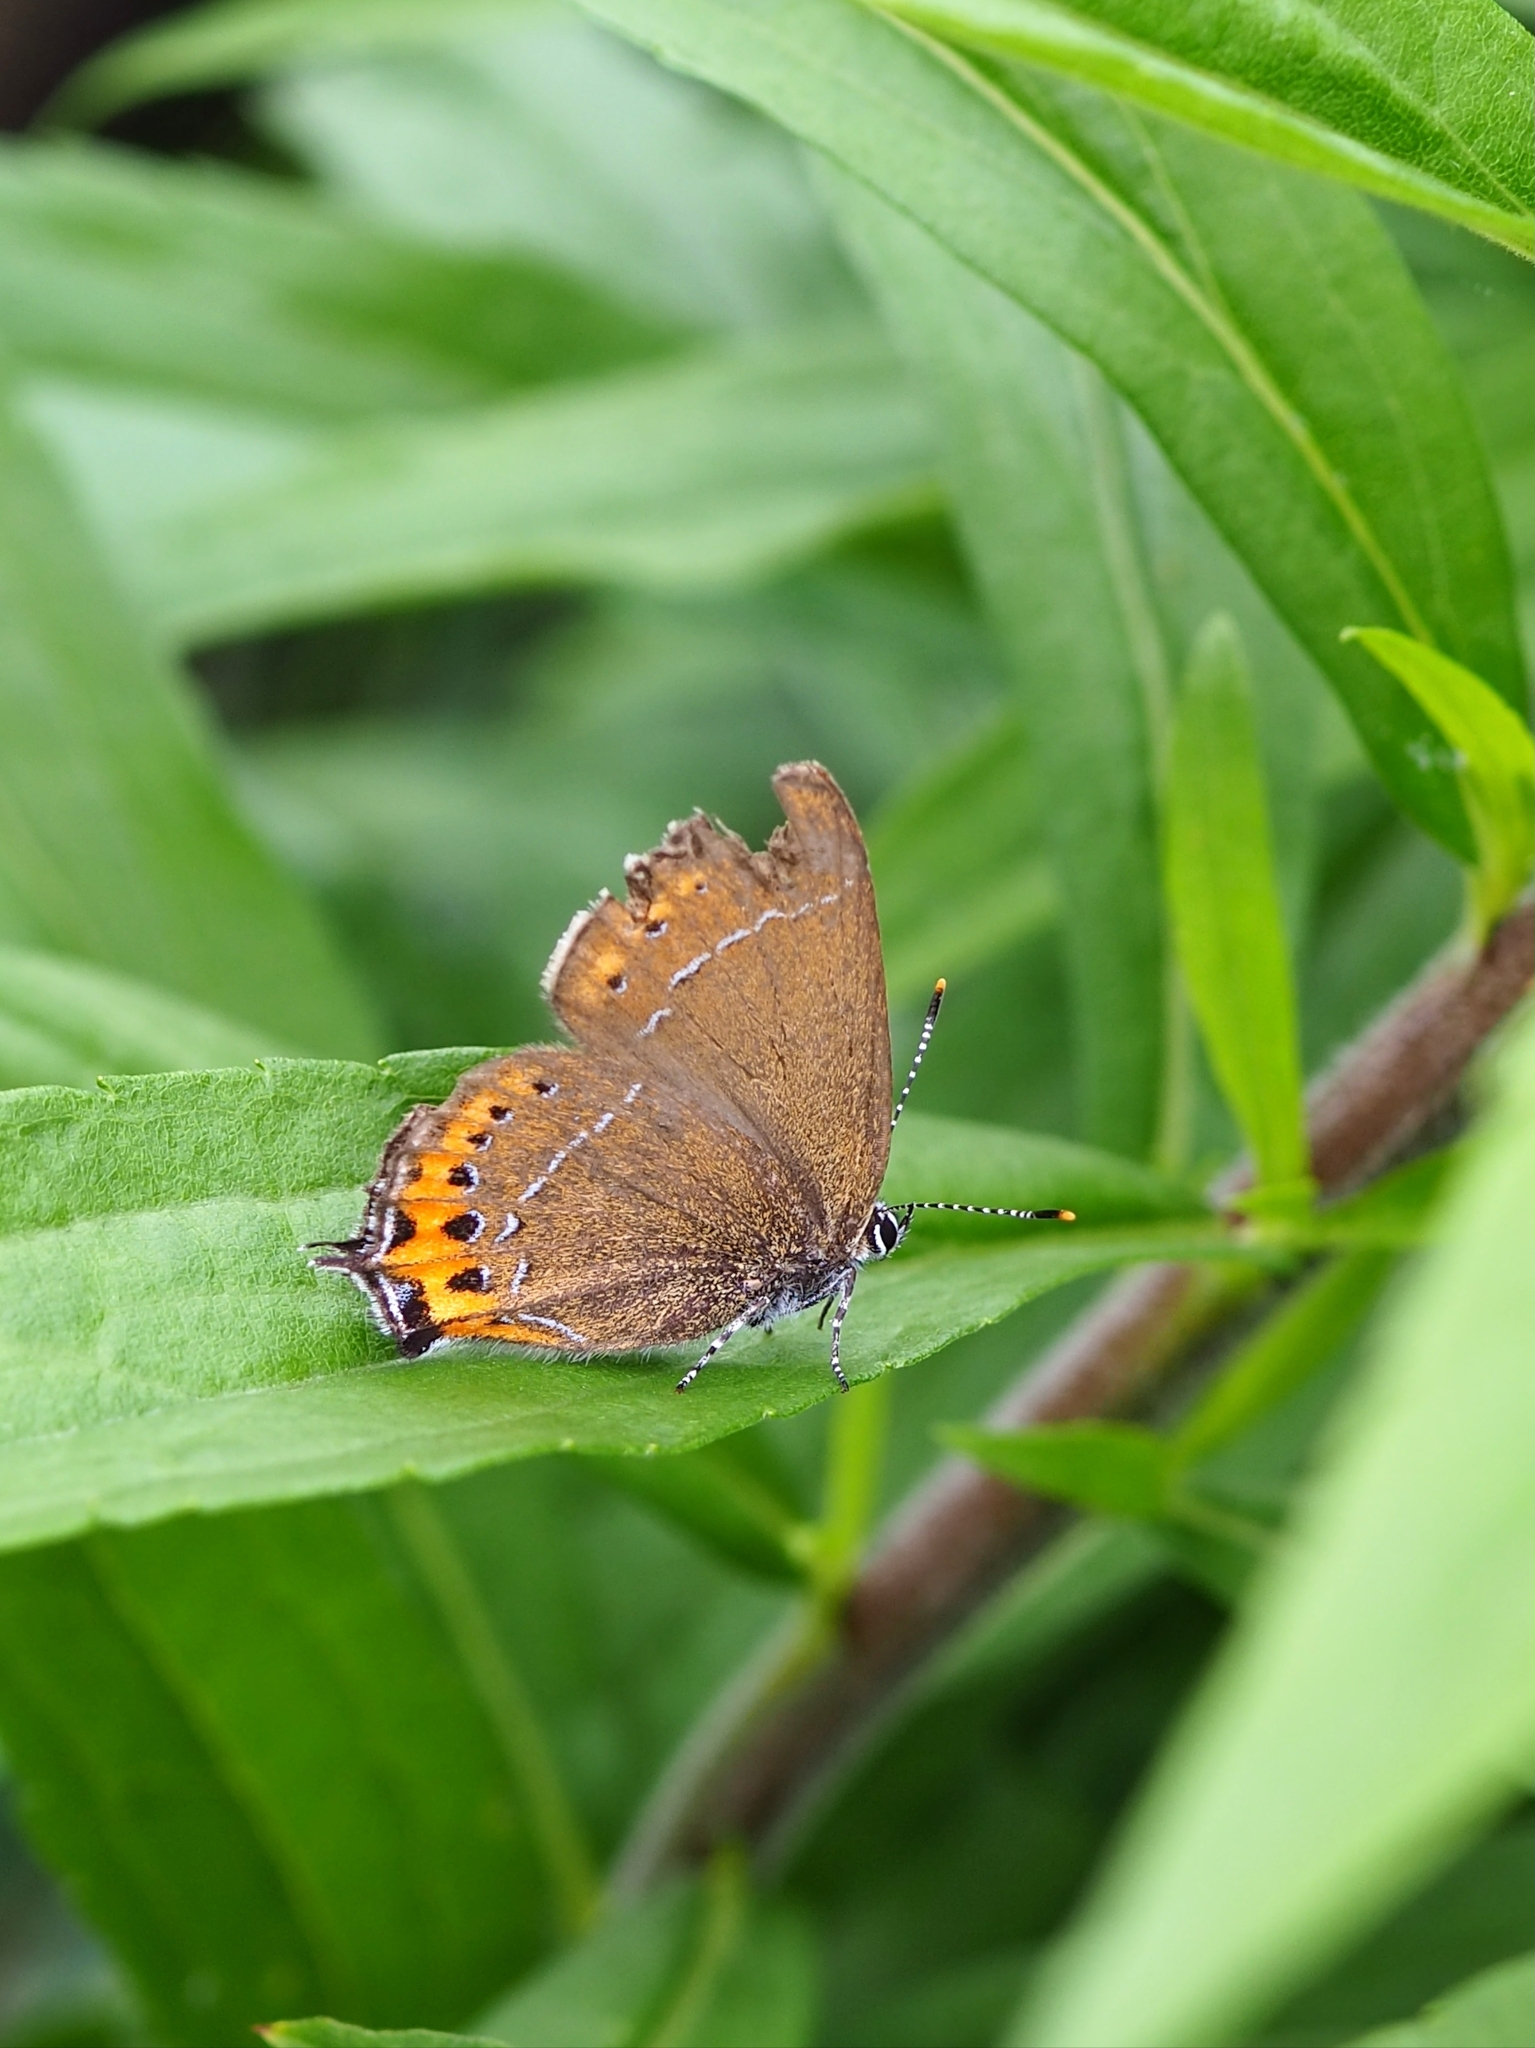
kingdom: Animalia
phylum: Arthropoda
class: Insecta
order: Lepidoptera
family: Lycaenidae
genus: Fixsenia
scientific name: Fixsenia pruni
